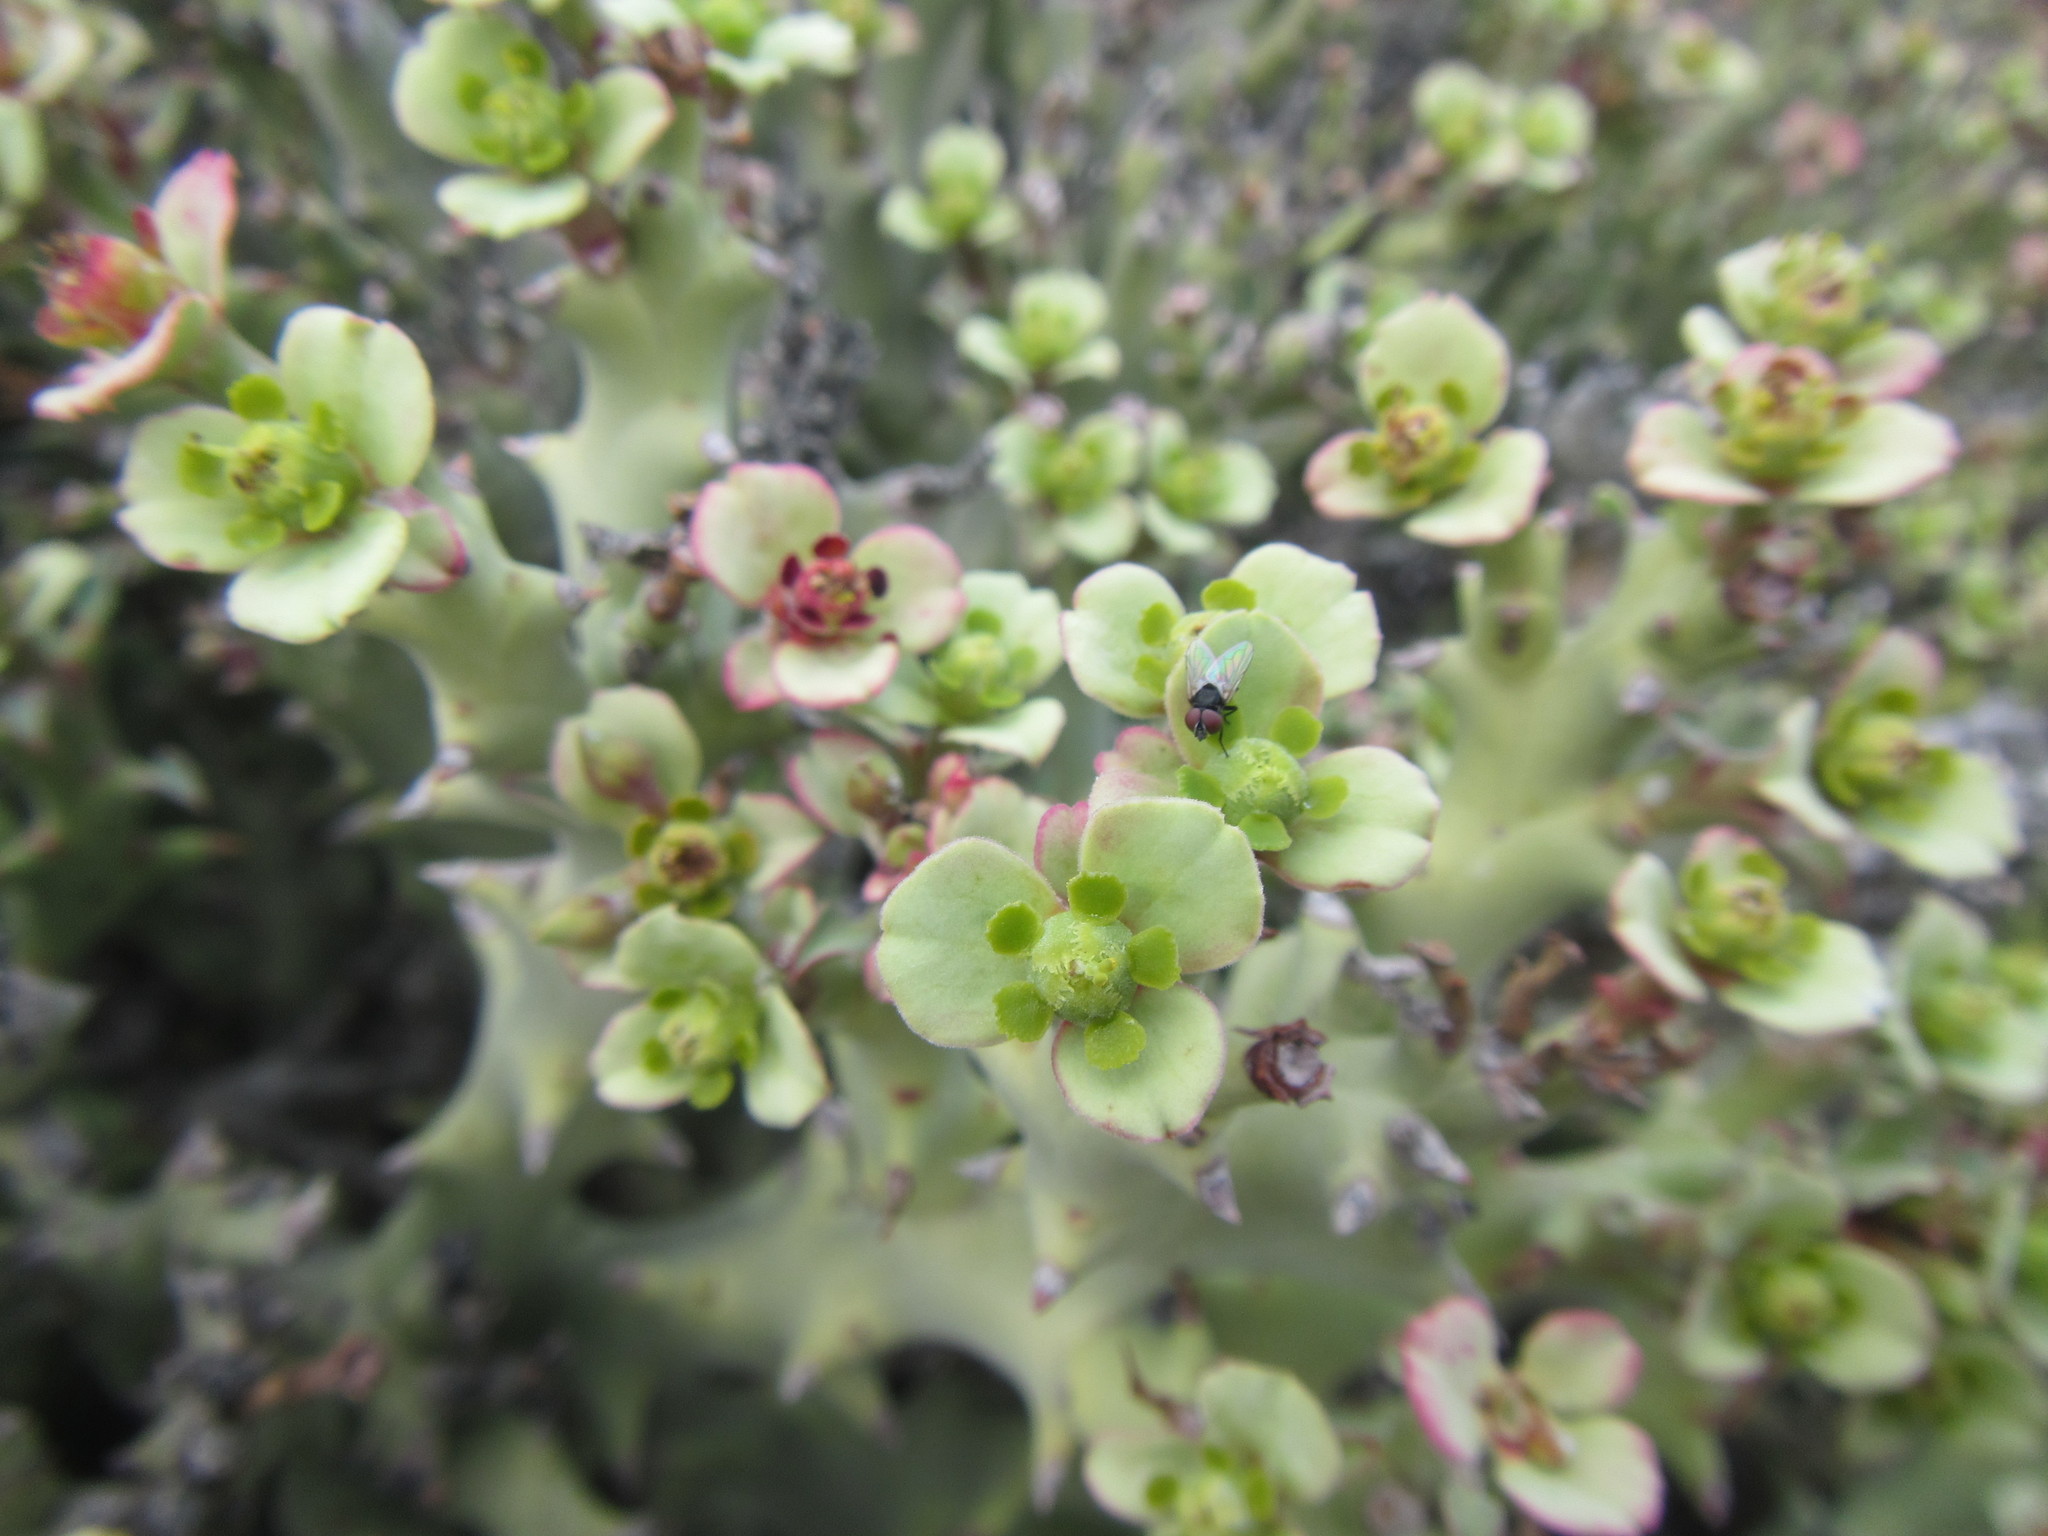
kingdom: Plantae
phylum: Tracheophyta
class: Magnoliopsida
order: Malpighiales
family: Euphorbiaceae
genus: Euphorbia
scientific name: Euphorbia hamata
